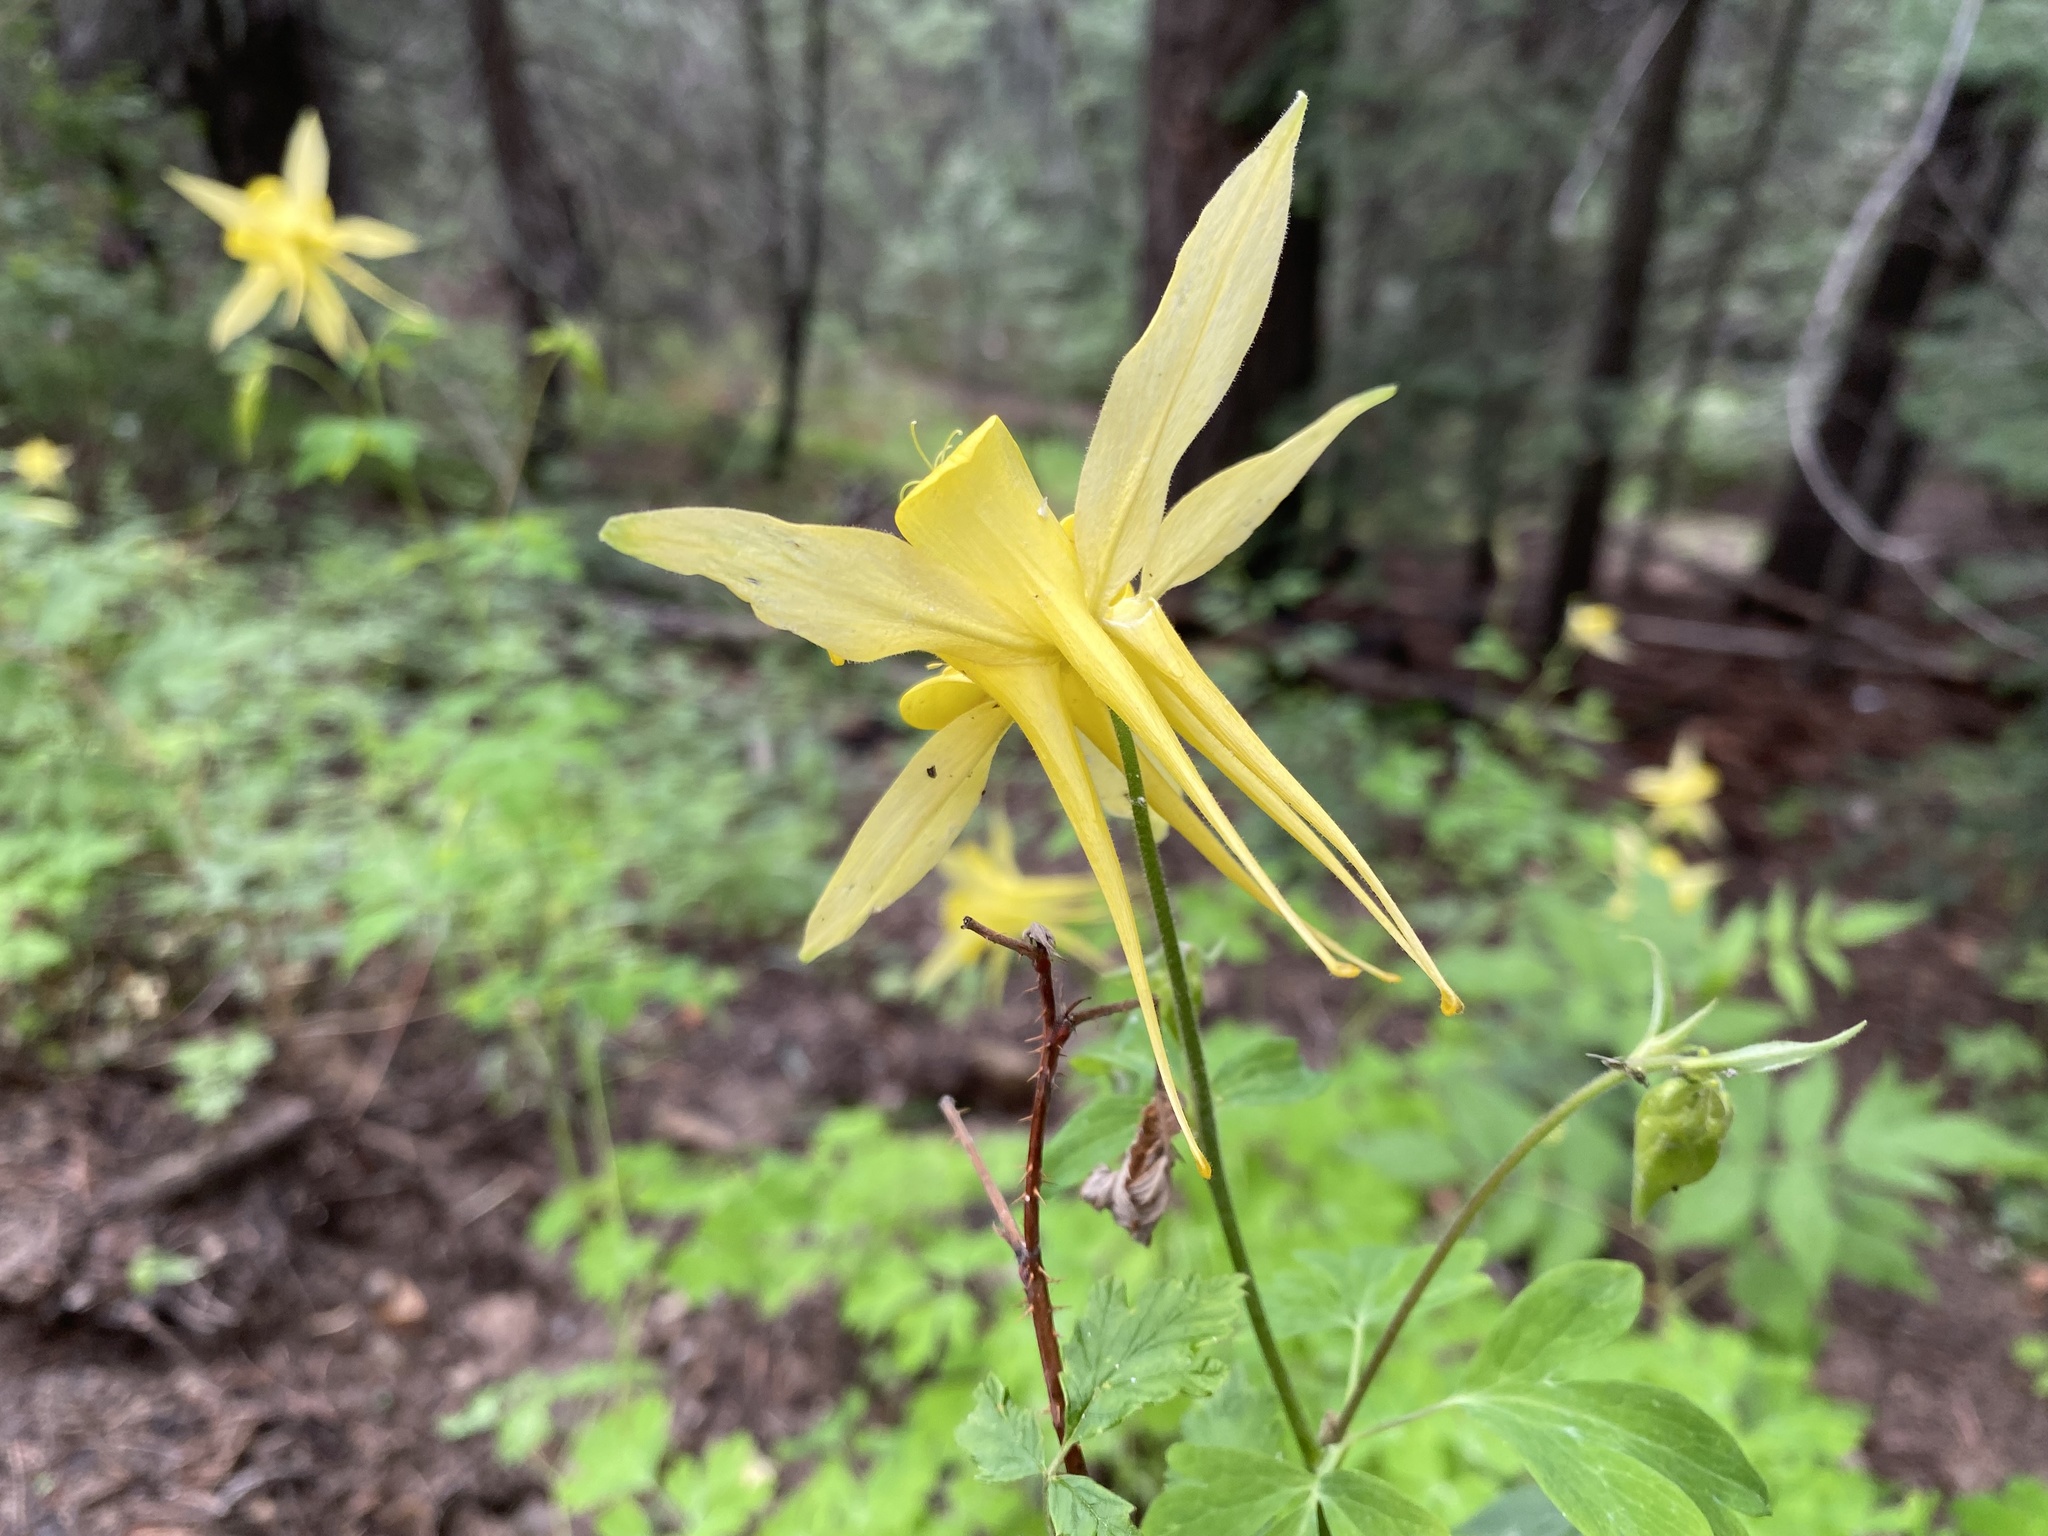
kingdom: Plantae
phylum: Tracheophyta
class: Magnoliopsida
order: Ranunculales
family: Ranunculaceae
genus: Aquilegia
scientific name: Aquilegia chrysantha
